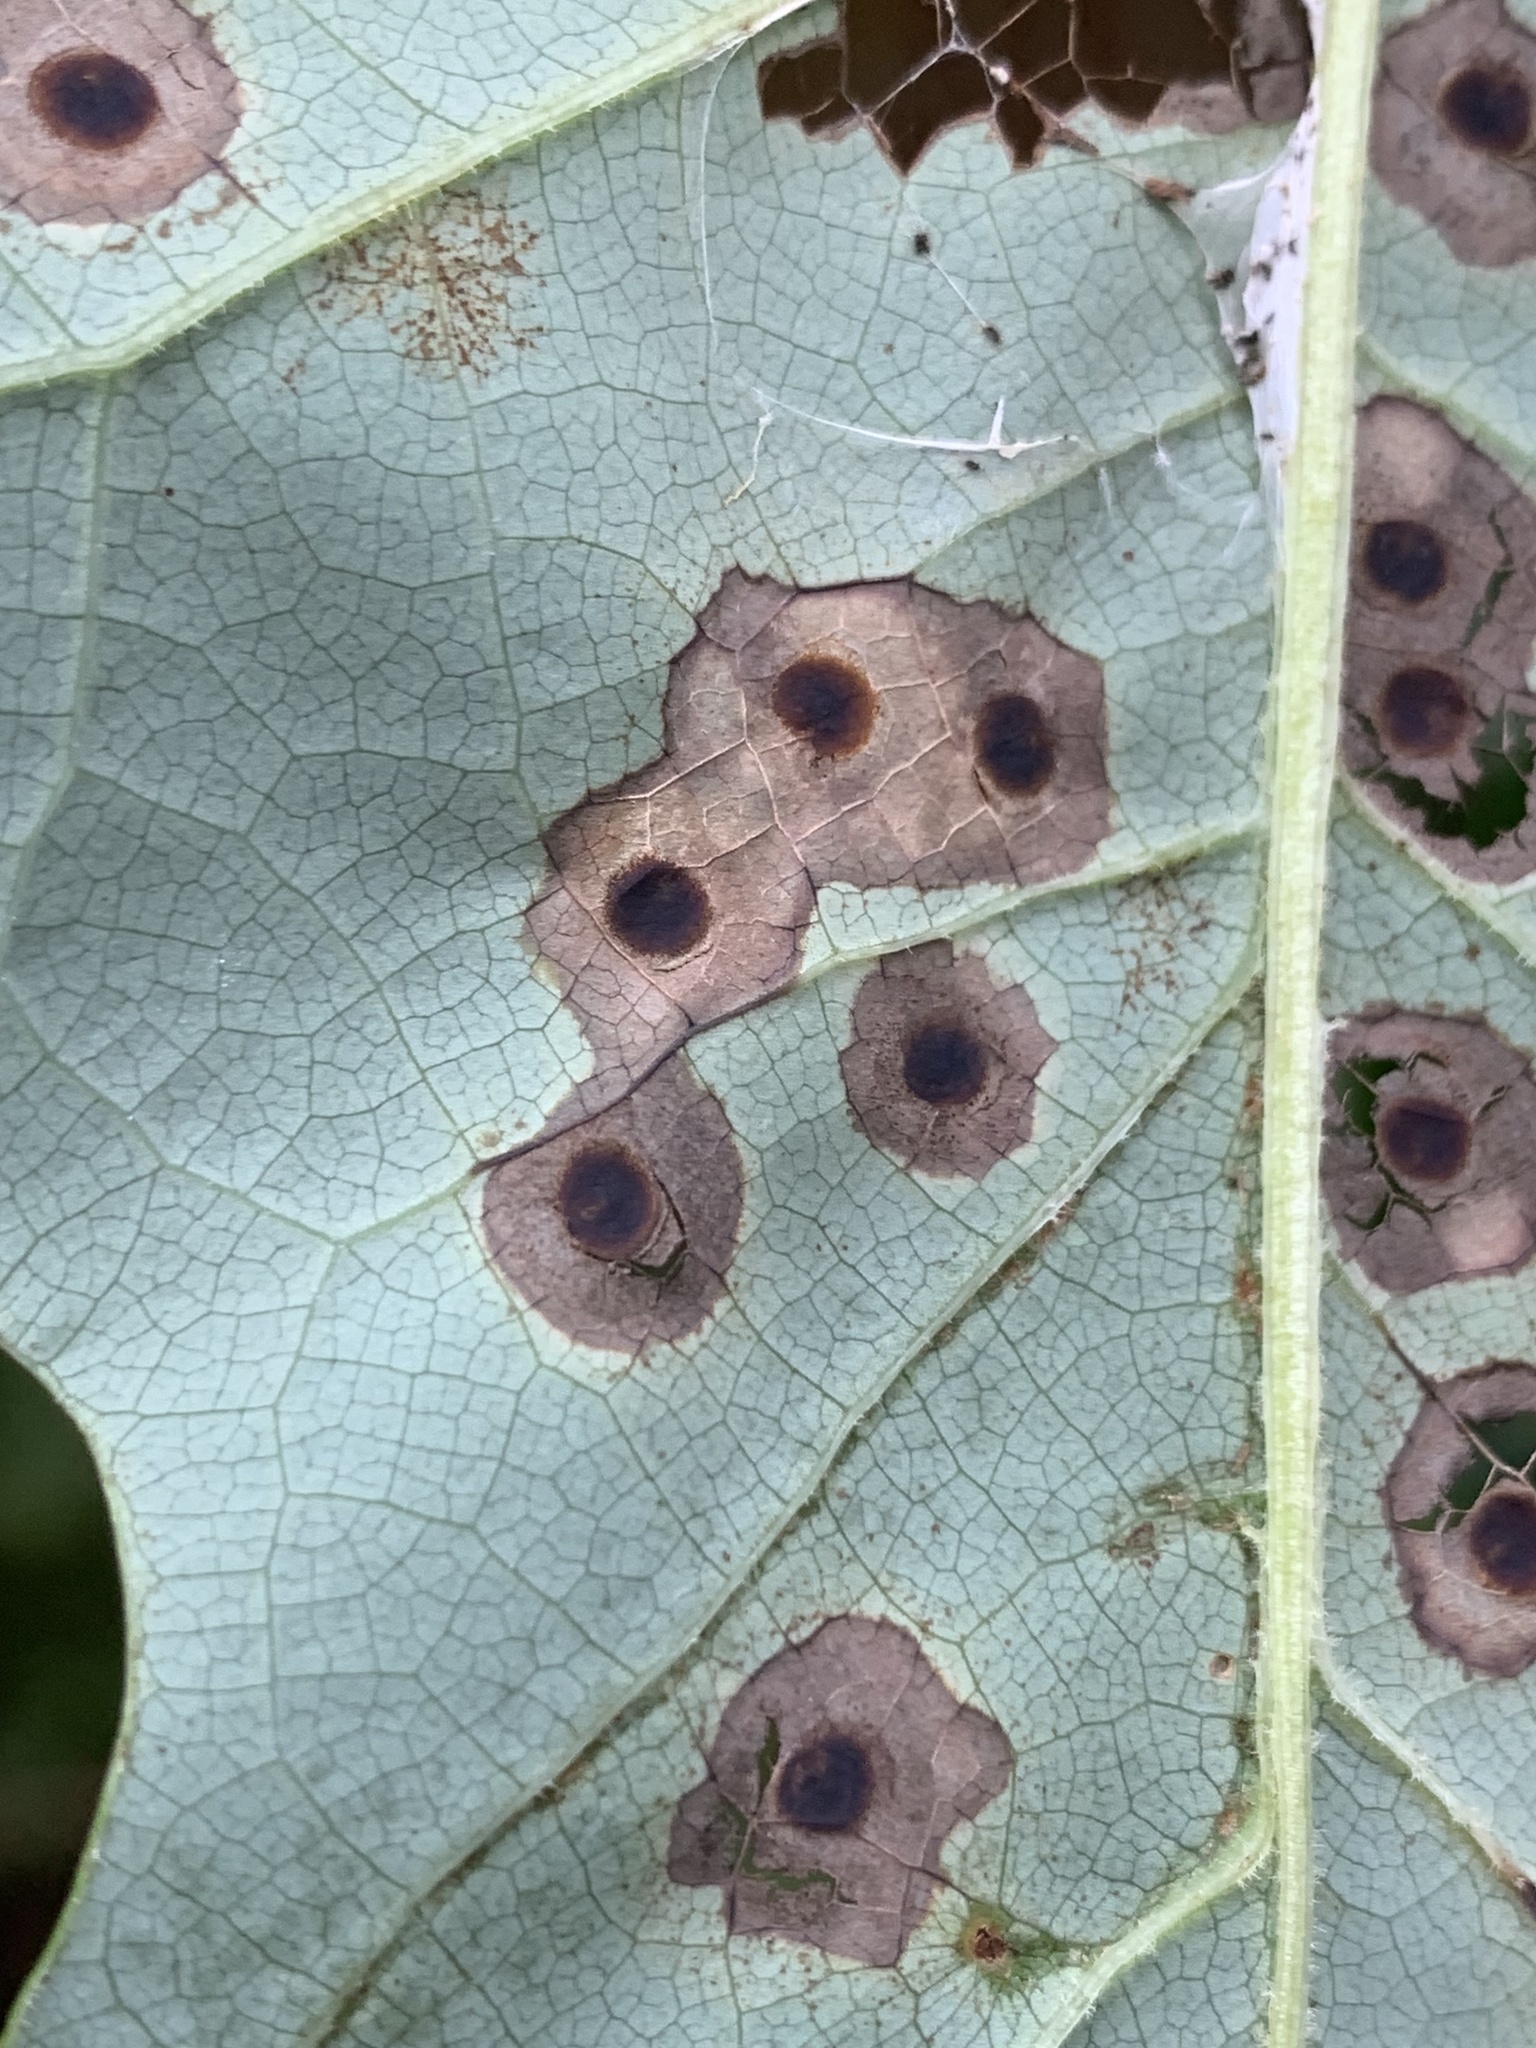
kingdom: Animalia
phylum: Arthropoda
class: Insecta
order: Diptera
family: Cecidomyiidae
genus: Resseliella
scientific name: Resseliella liriodendri
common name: Tulip tree leaf spot gall midge
